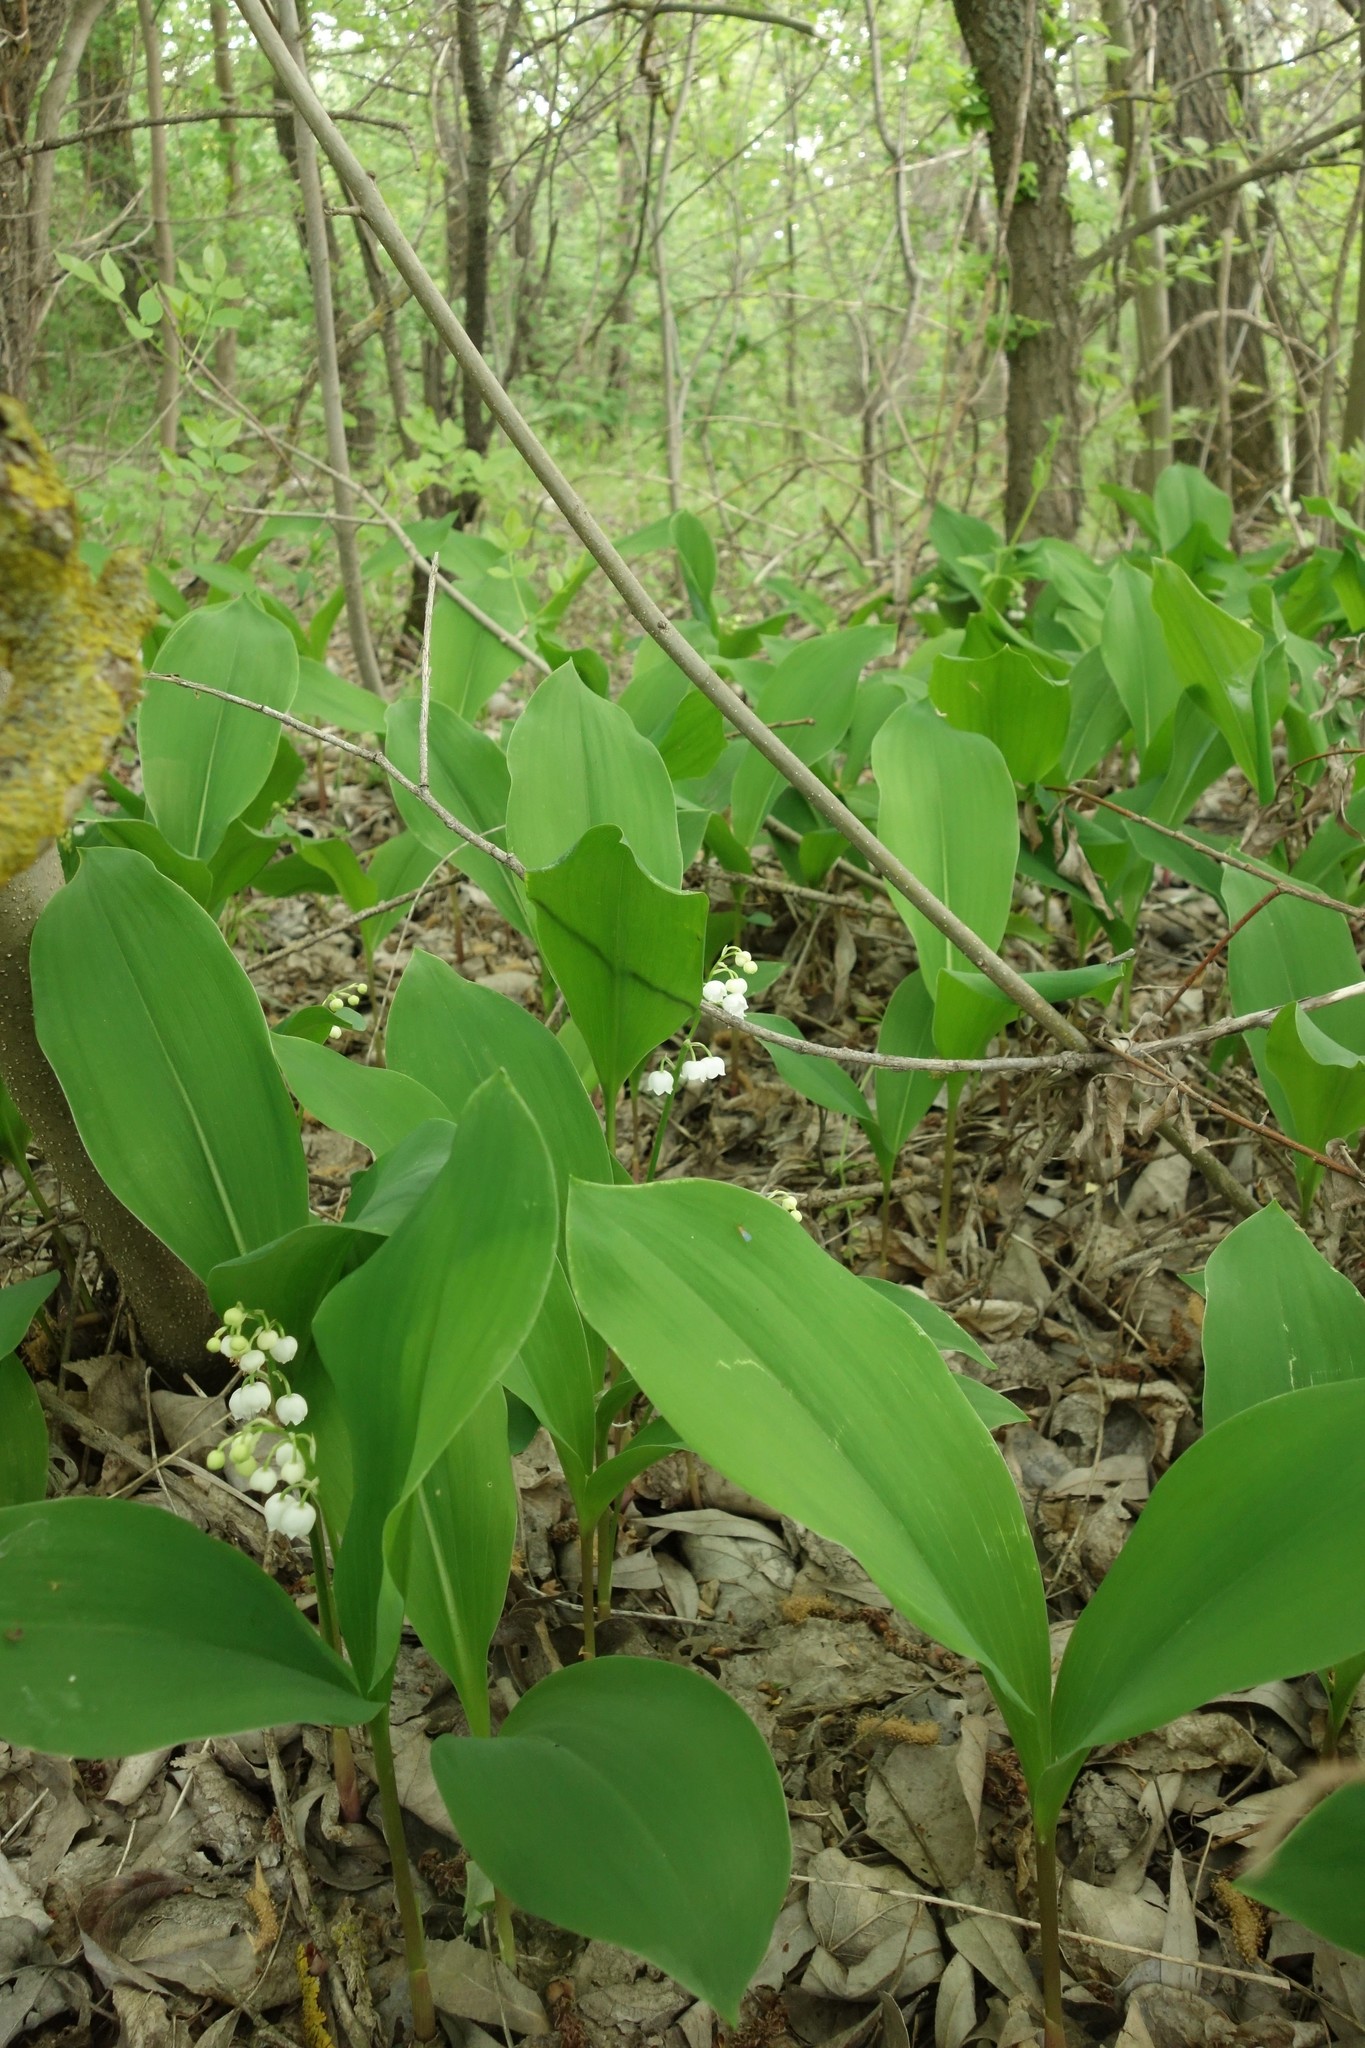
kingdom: Plantae
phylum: Tracheophyta
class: Liliopsida
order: Asparagales
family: Asparagaceae
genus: Convallaria
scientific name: Convallaria majalis
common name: Lily-of-the-valley
